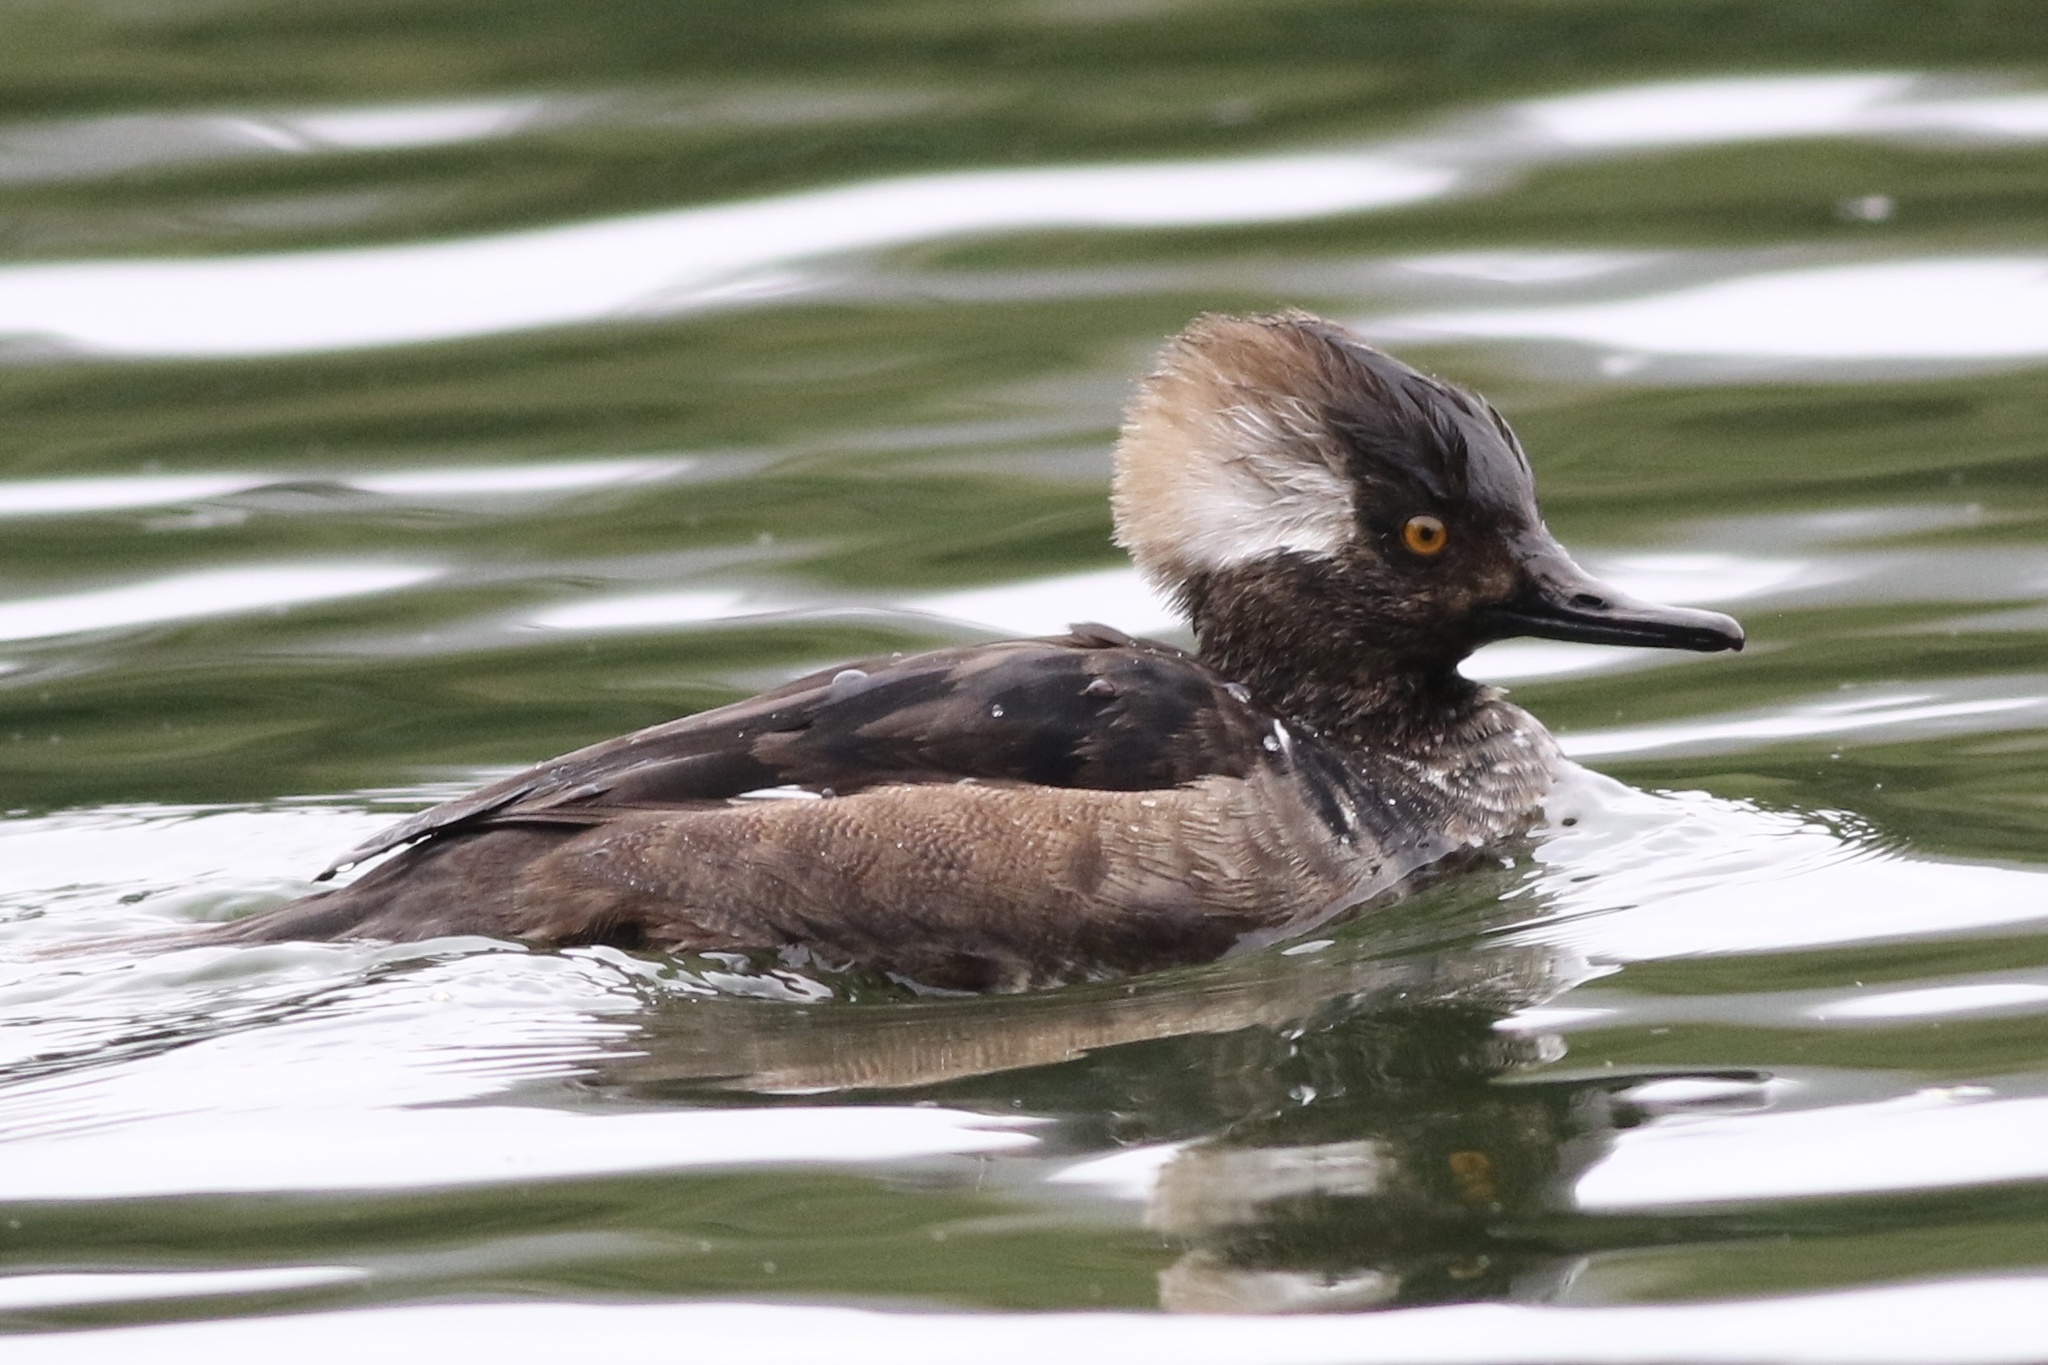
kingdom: Animalia
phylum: Chordata
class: Aves
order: Anseriformes
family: Anatidae
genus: Lophodytes
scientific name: Lophodytes cucullatus
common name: Hooded merganser
